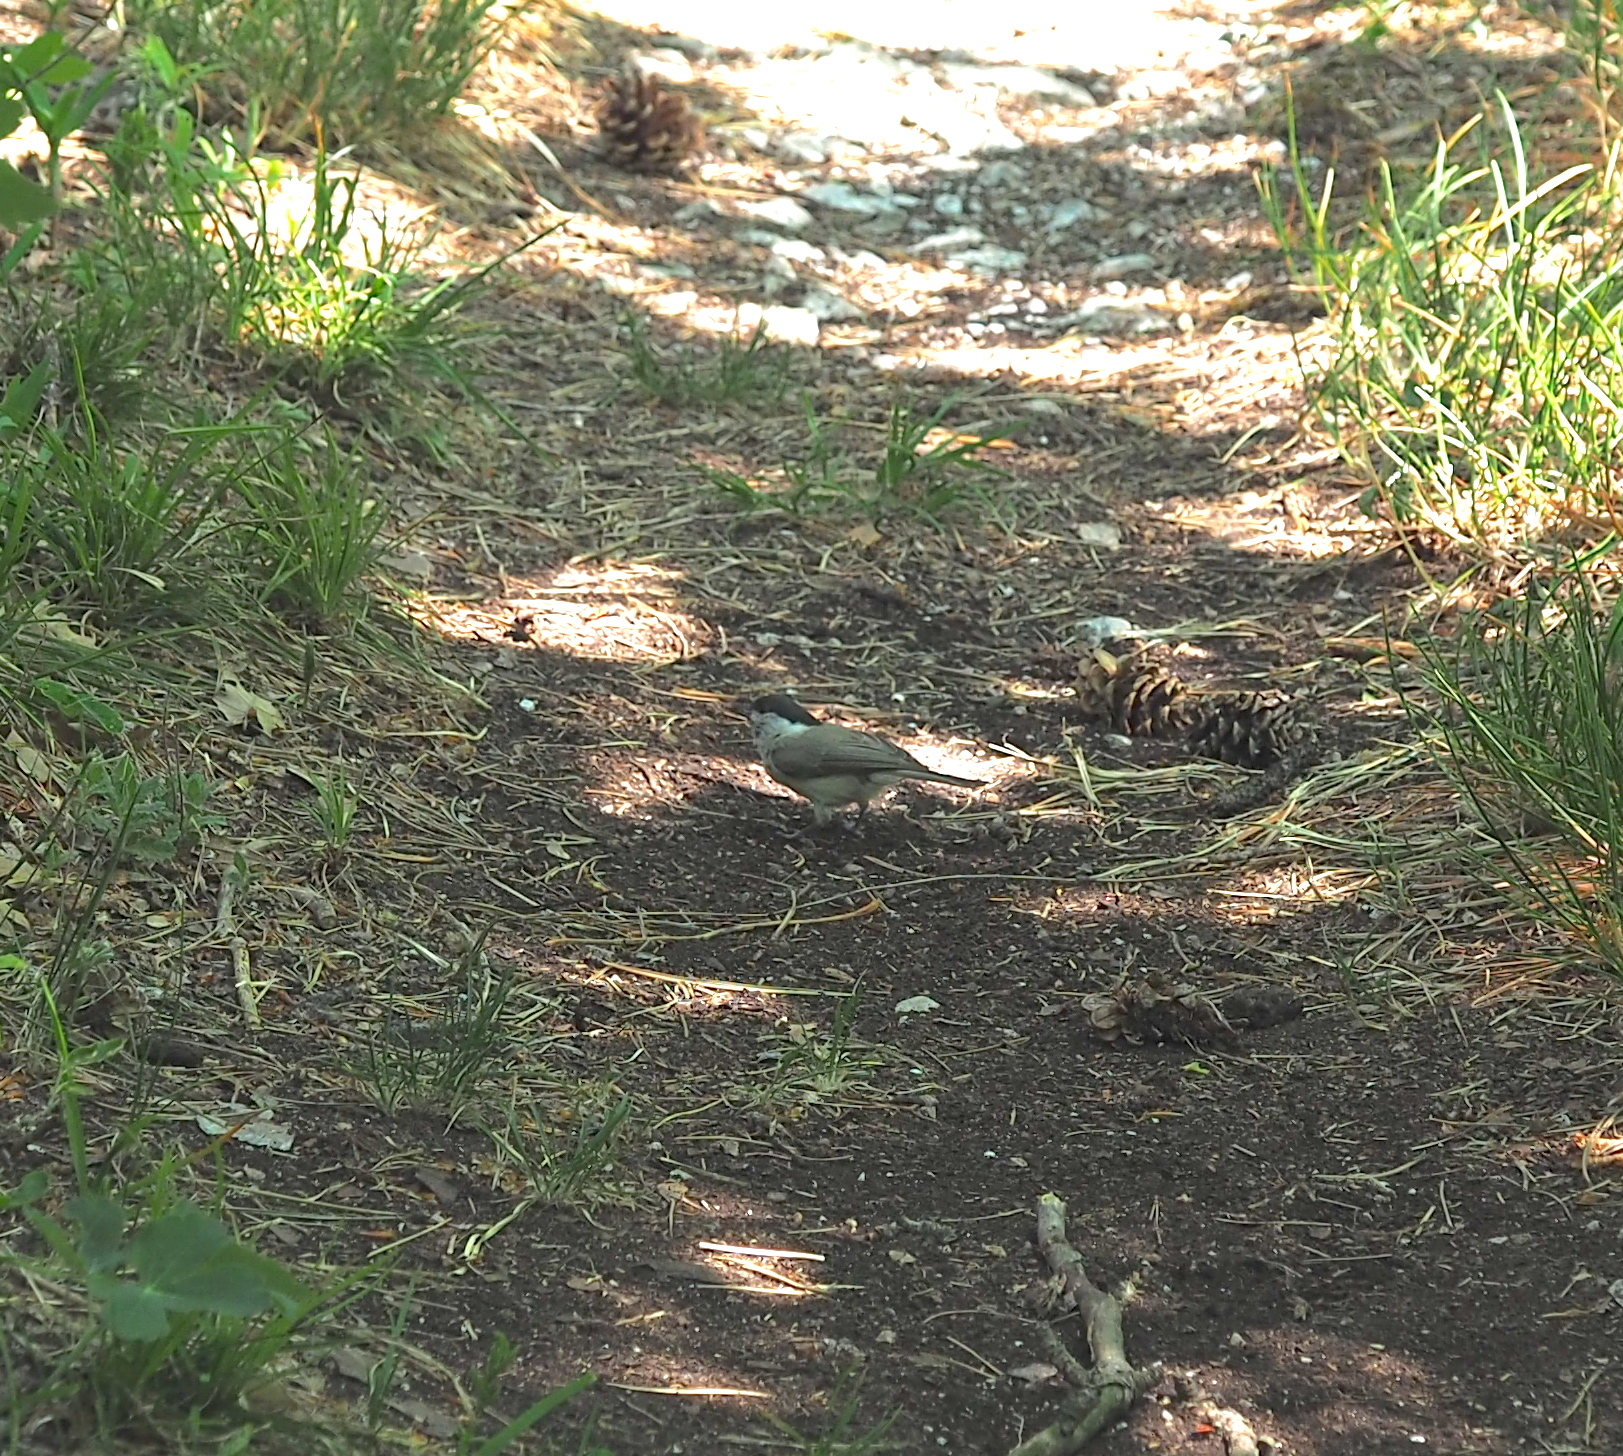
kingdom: Animalia
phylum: Chordata
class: Aves
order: Passeriformes
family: Paridae
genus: Poecile
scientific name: Poecile palustris
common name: Marsh tit
